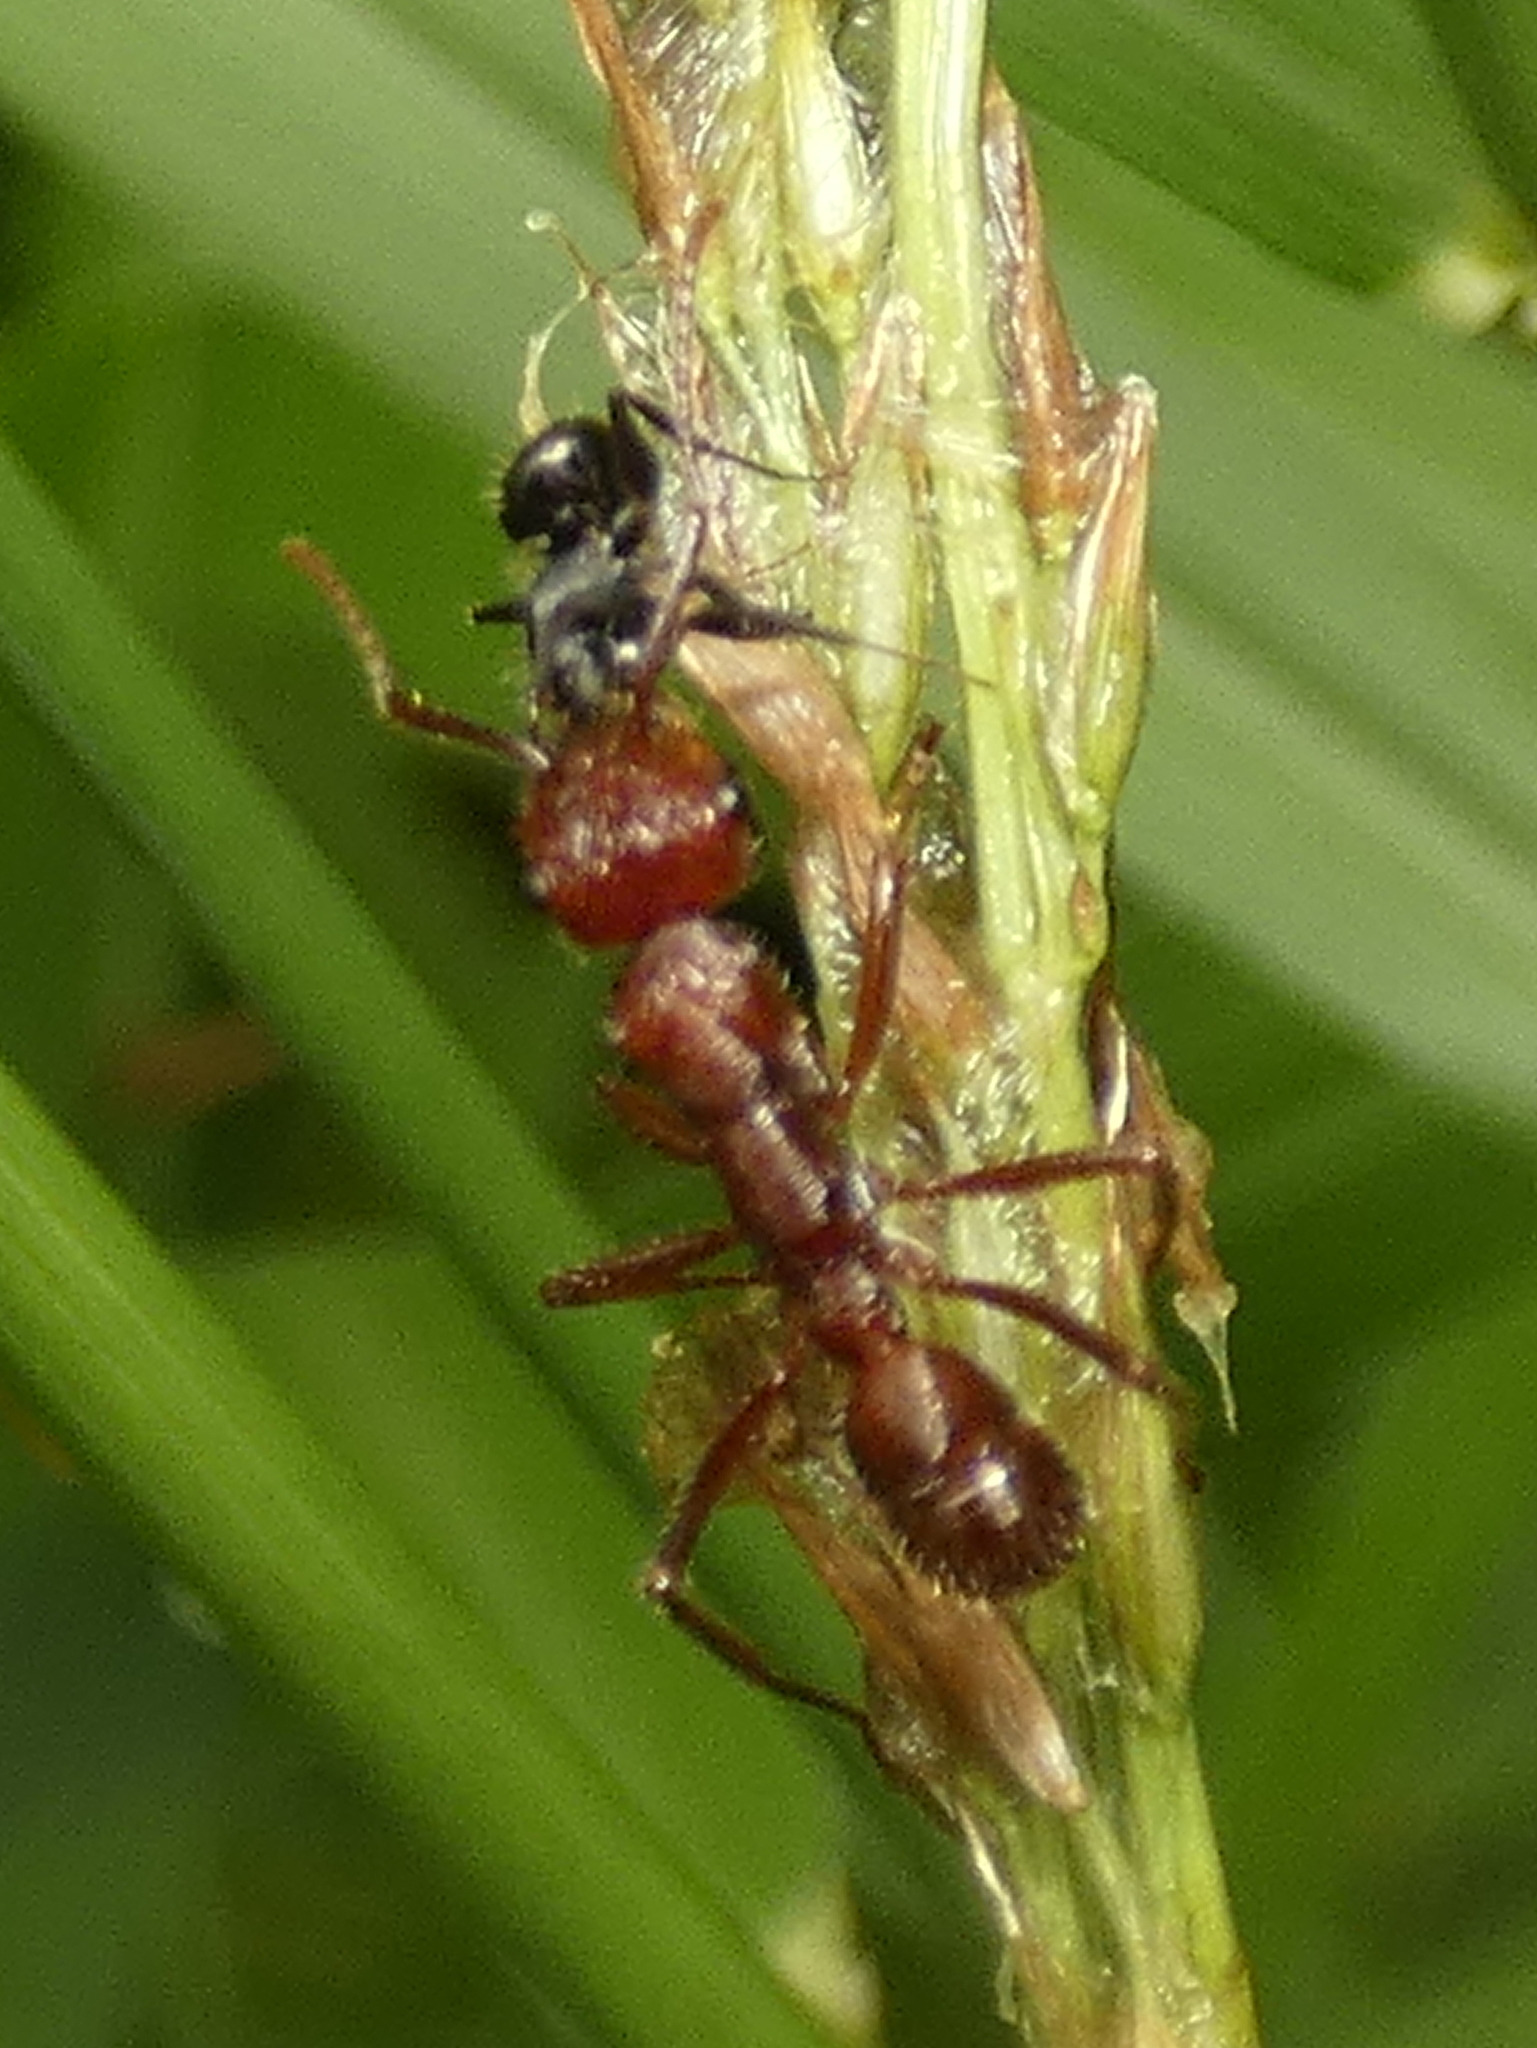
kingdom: Animalia
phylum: Arthropoda
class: Insecta
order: Hymenoptera
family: Formicidae
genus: Ectatomma
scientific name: Ectatomma tuberculatum
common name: Ant
